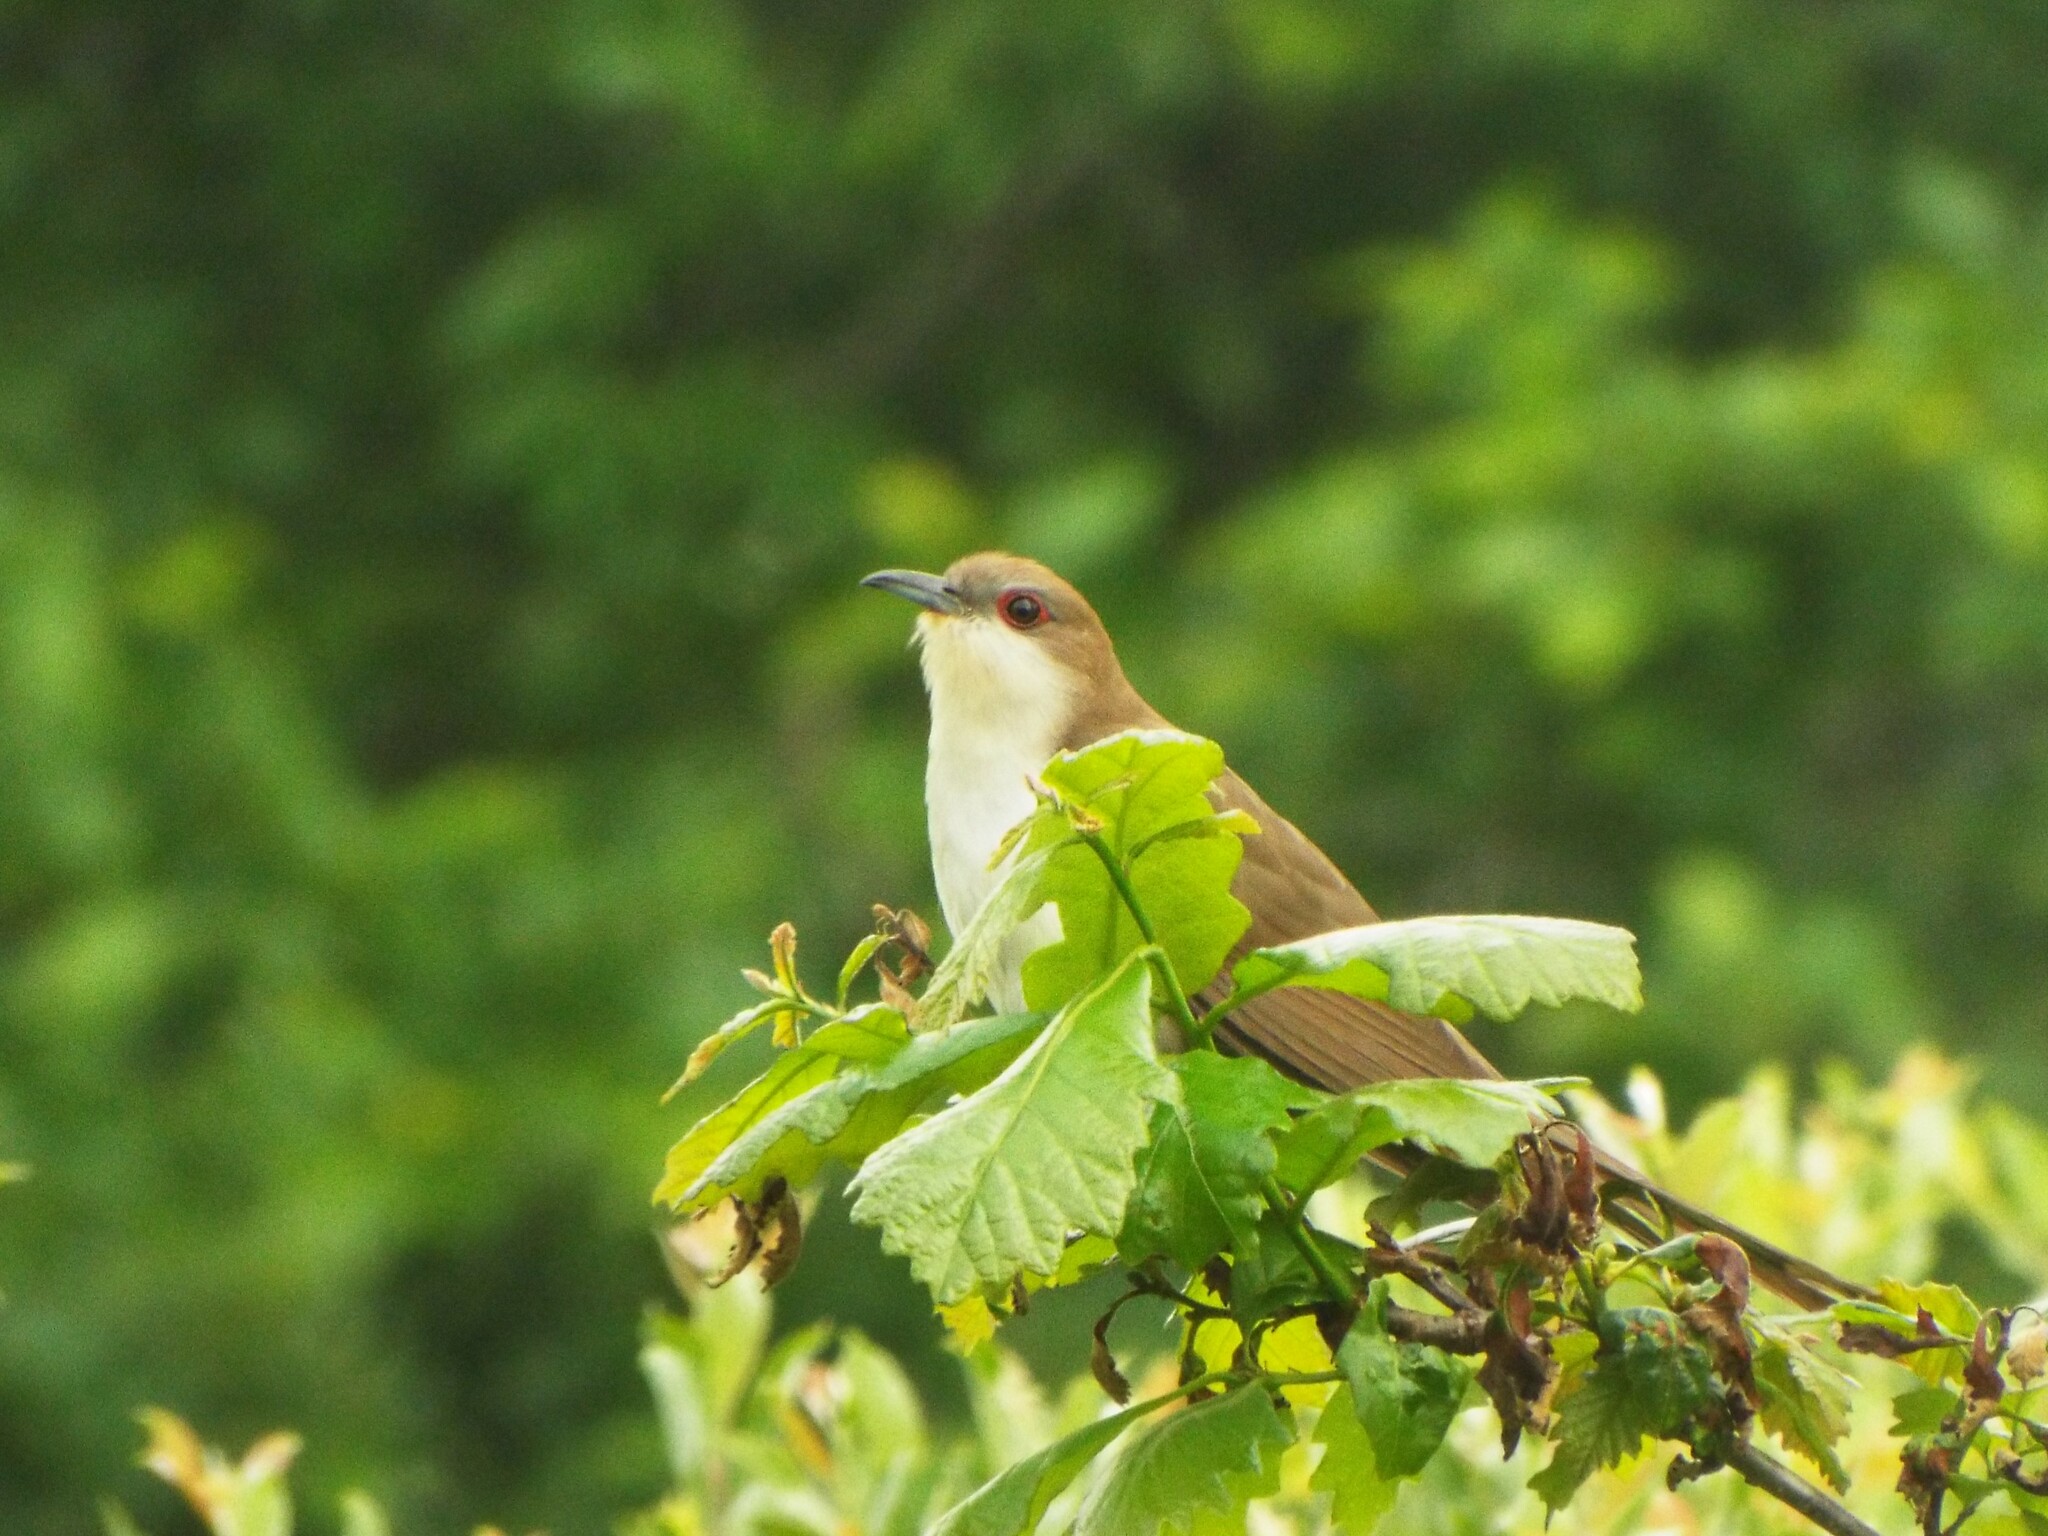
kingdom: Animalia
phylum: Chordata
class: Aves
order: Cuculiformes
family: Cuculidae
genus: Coccyzus
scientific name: Coccyzus erythropthalmus
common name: Black-billed cuckoo
